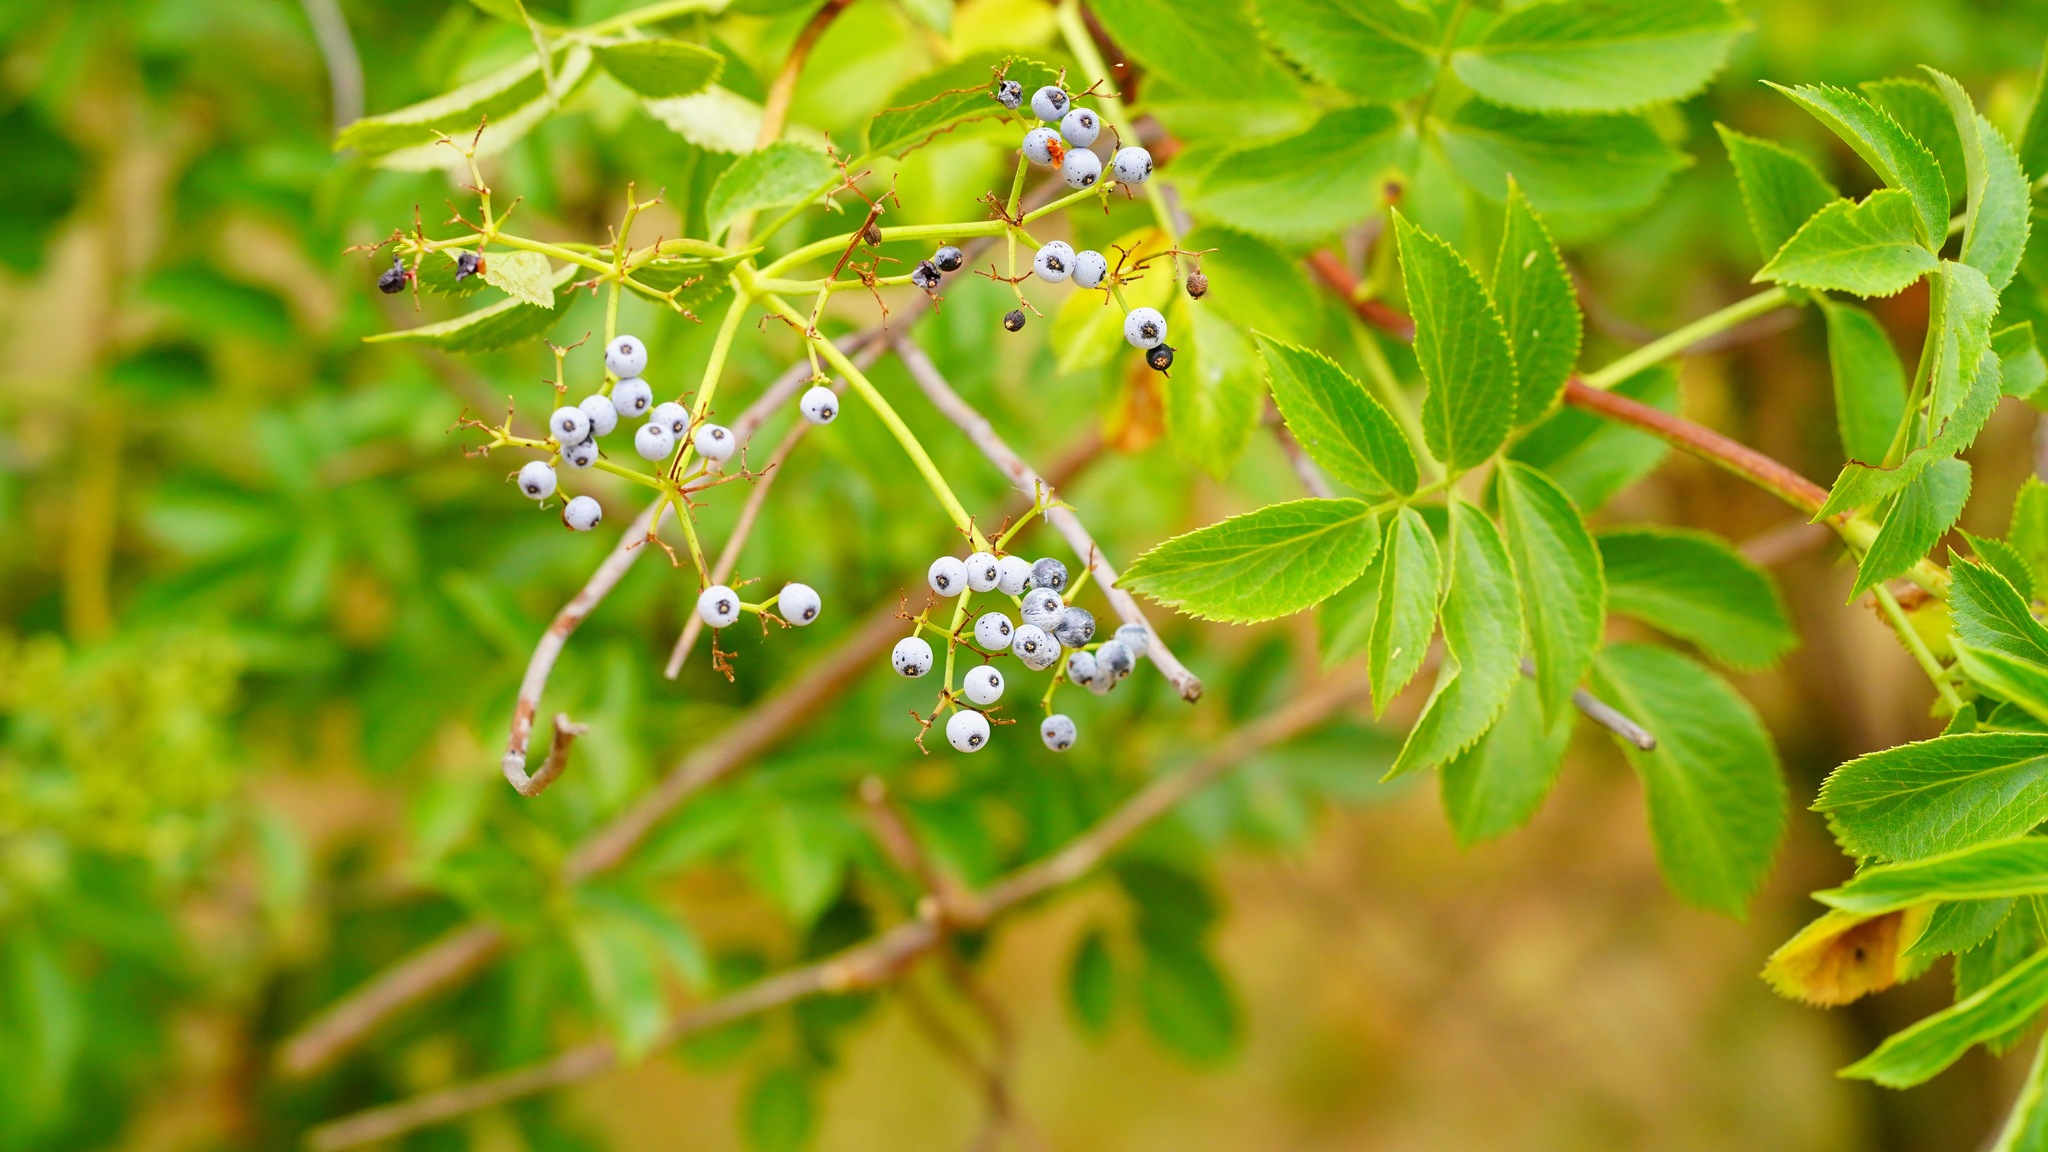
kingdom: Plantae
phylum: Tracheophyta
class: Magnoliopsida
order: Dipsacales
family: Viburnaceae
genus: Sambucus
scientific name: Sambucus cerulea
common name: Blue elder
